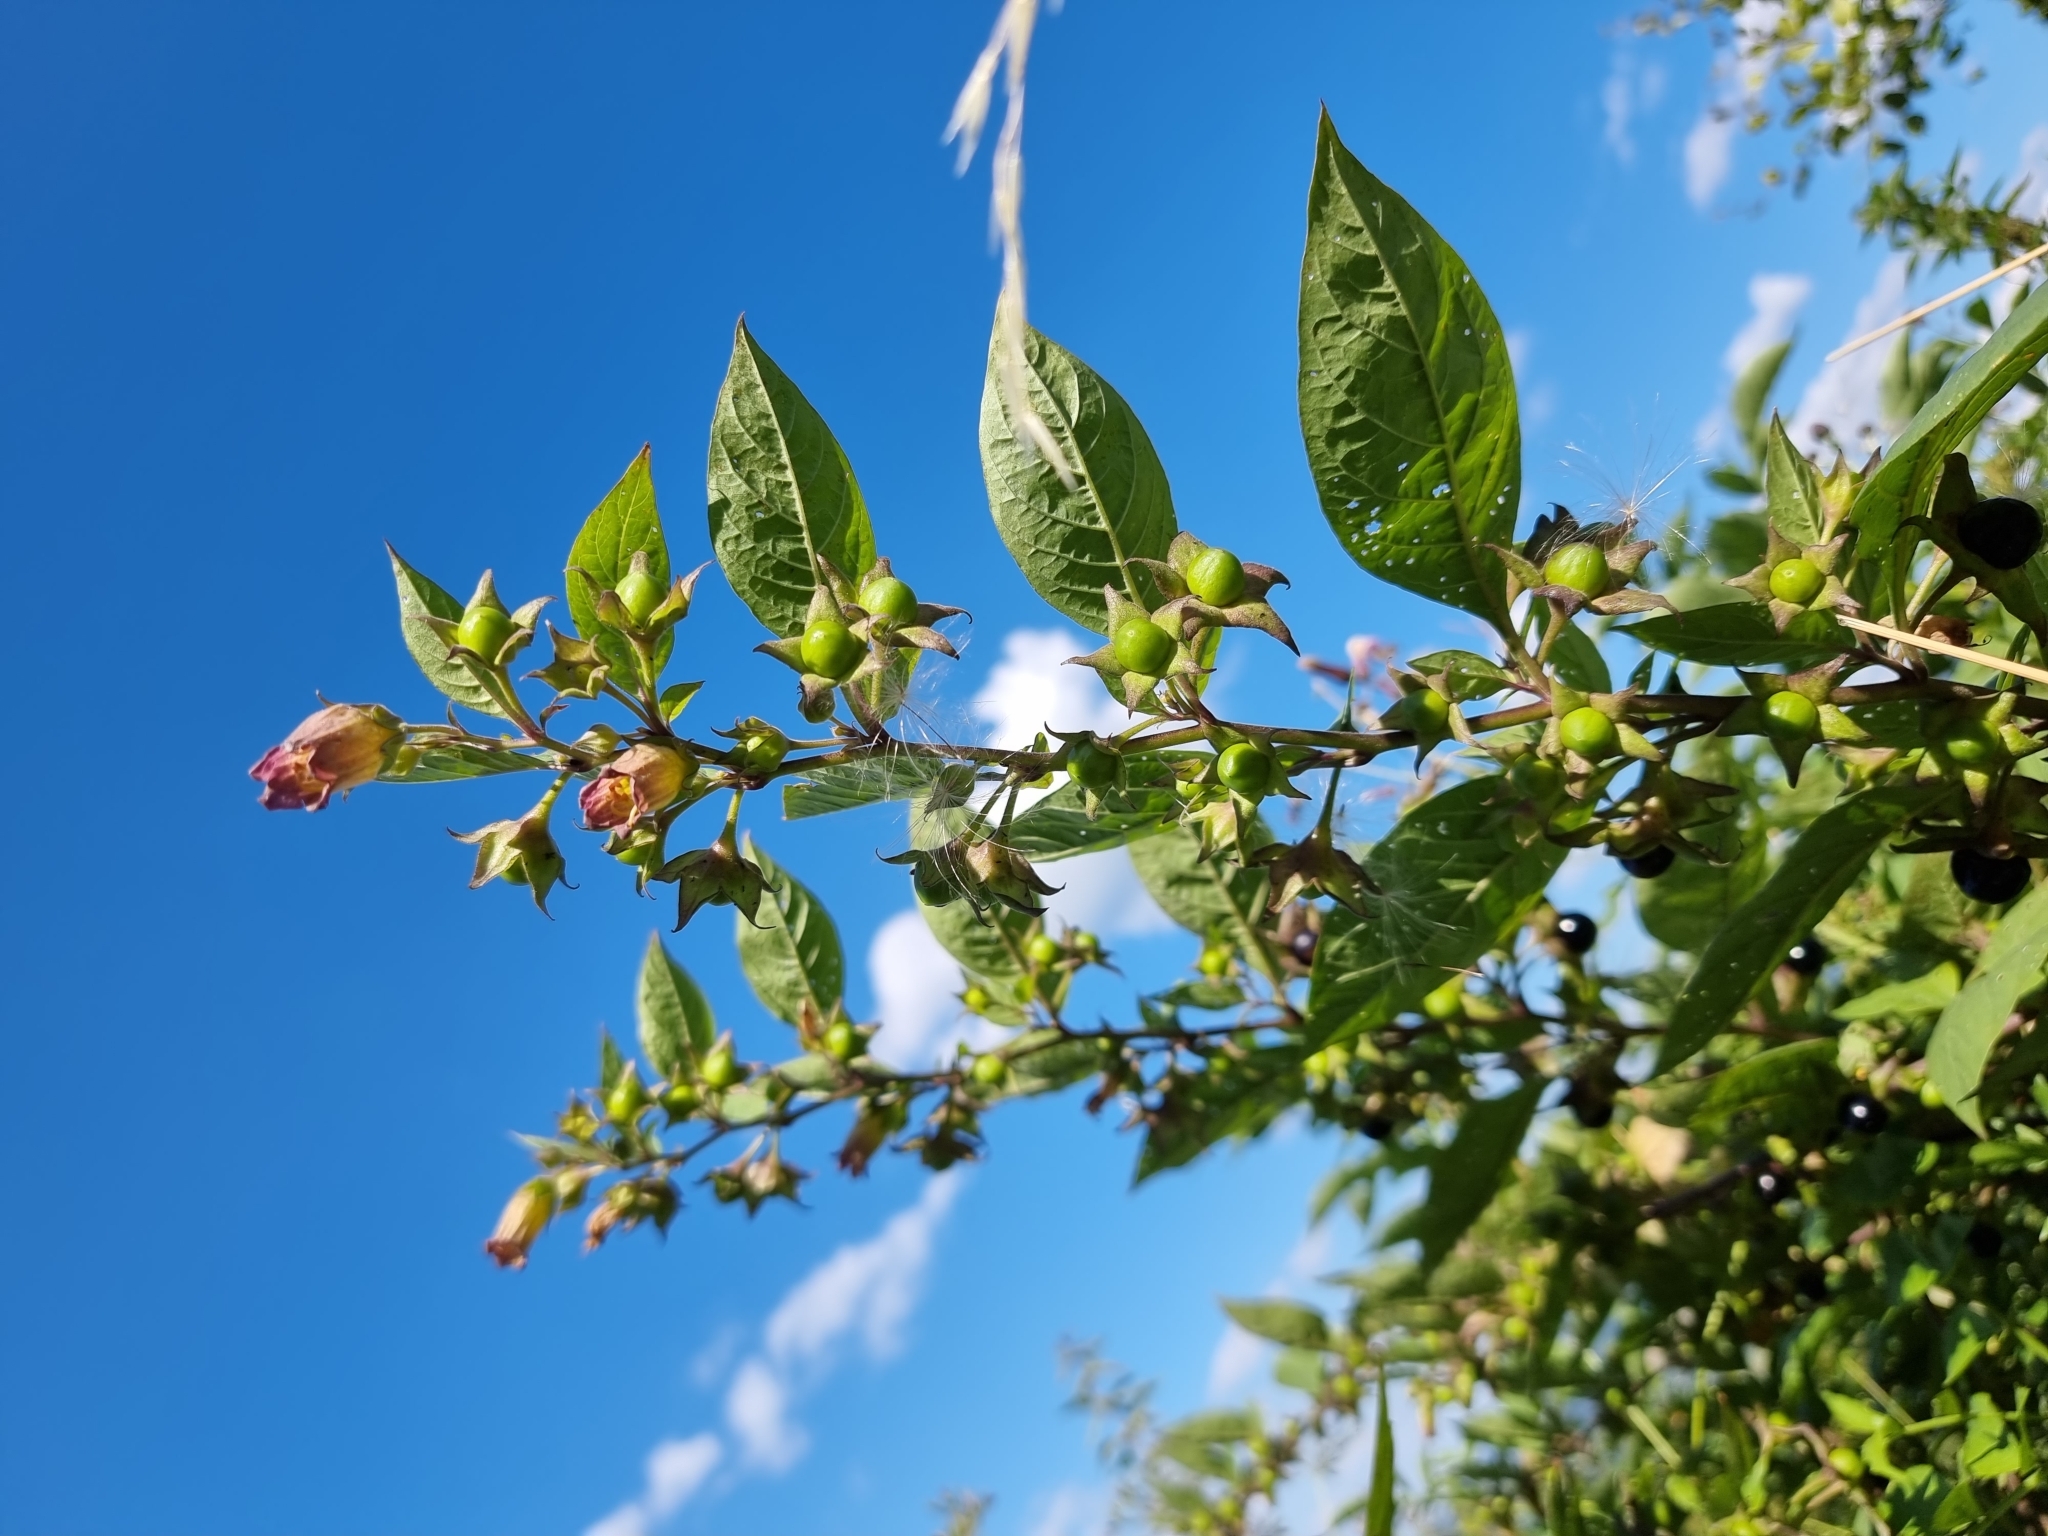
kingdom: Plantae
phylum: Tracheophyta
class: Magnoliopsida
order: Solanales
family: Solanaceae
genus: Atropa
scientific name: Atropa belladonna
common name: Deadly nightshade
